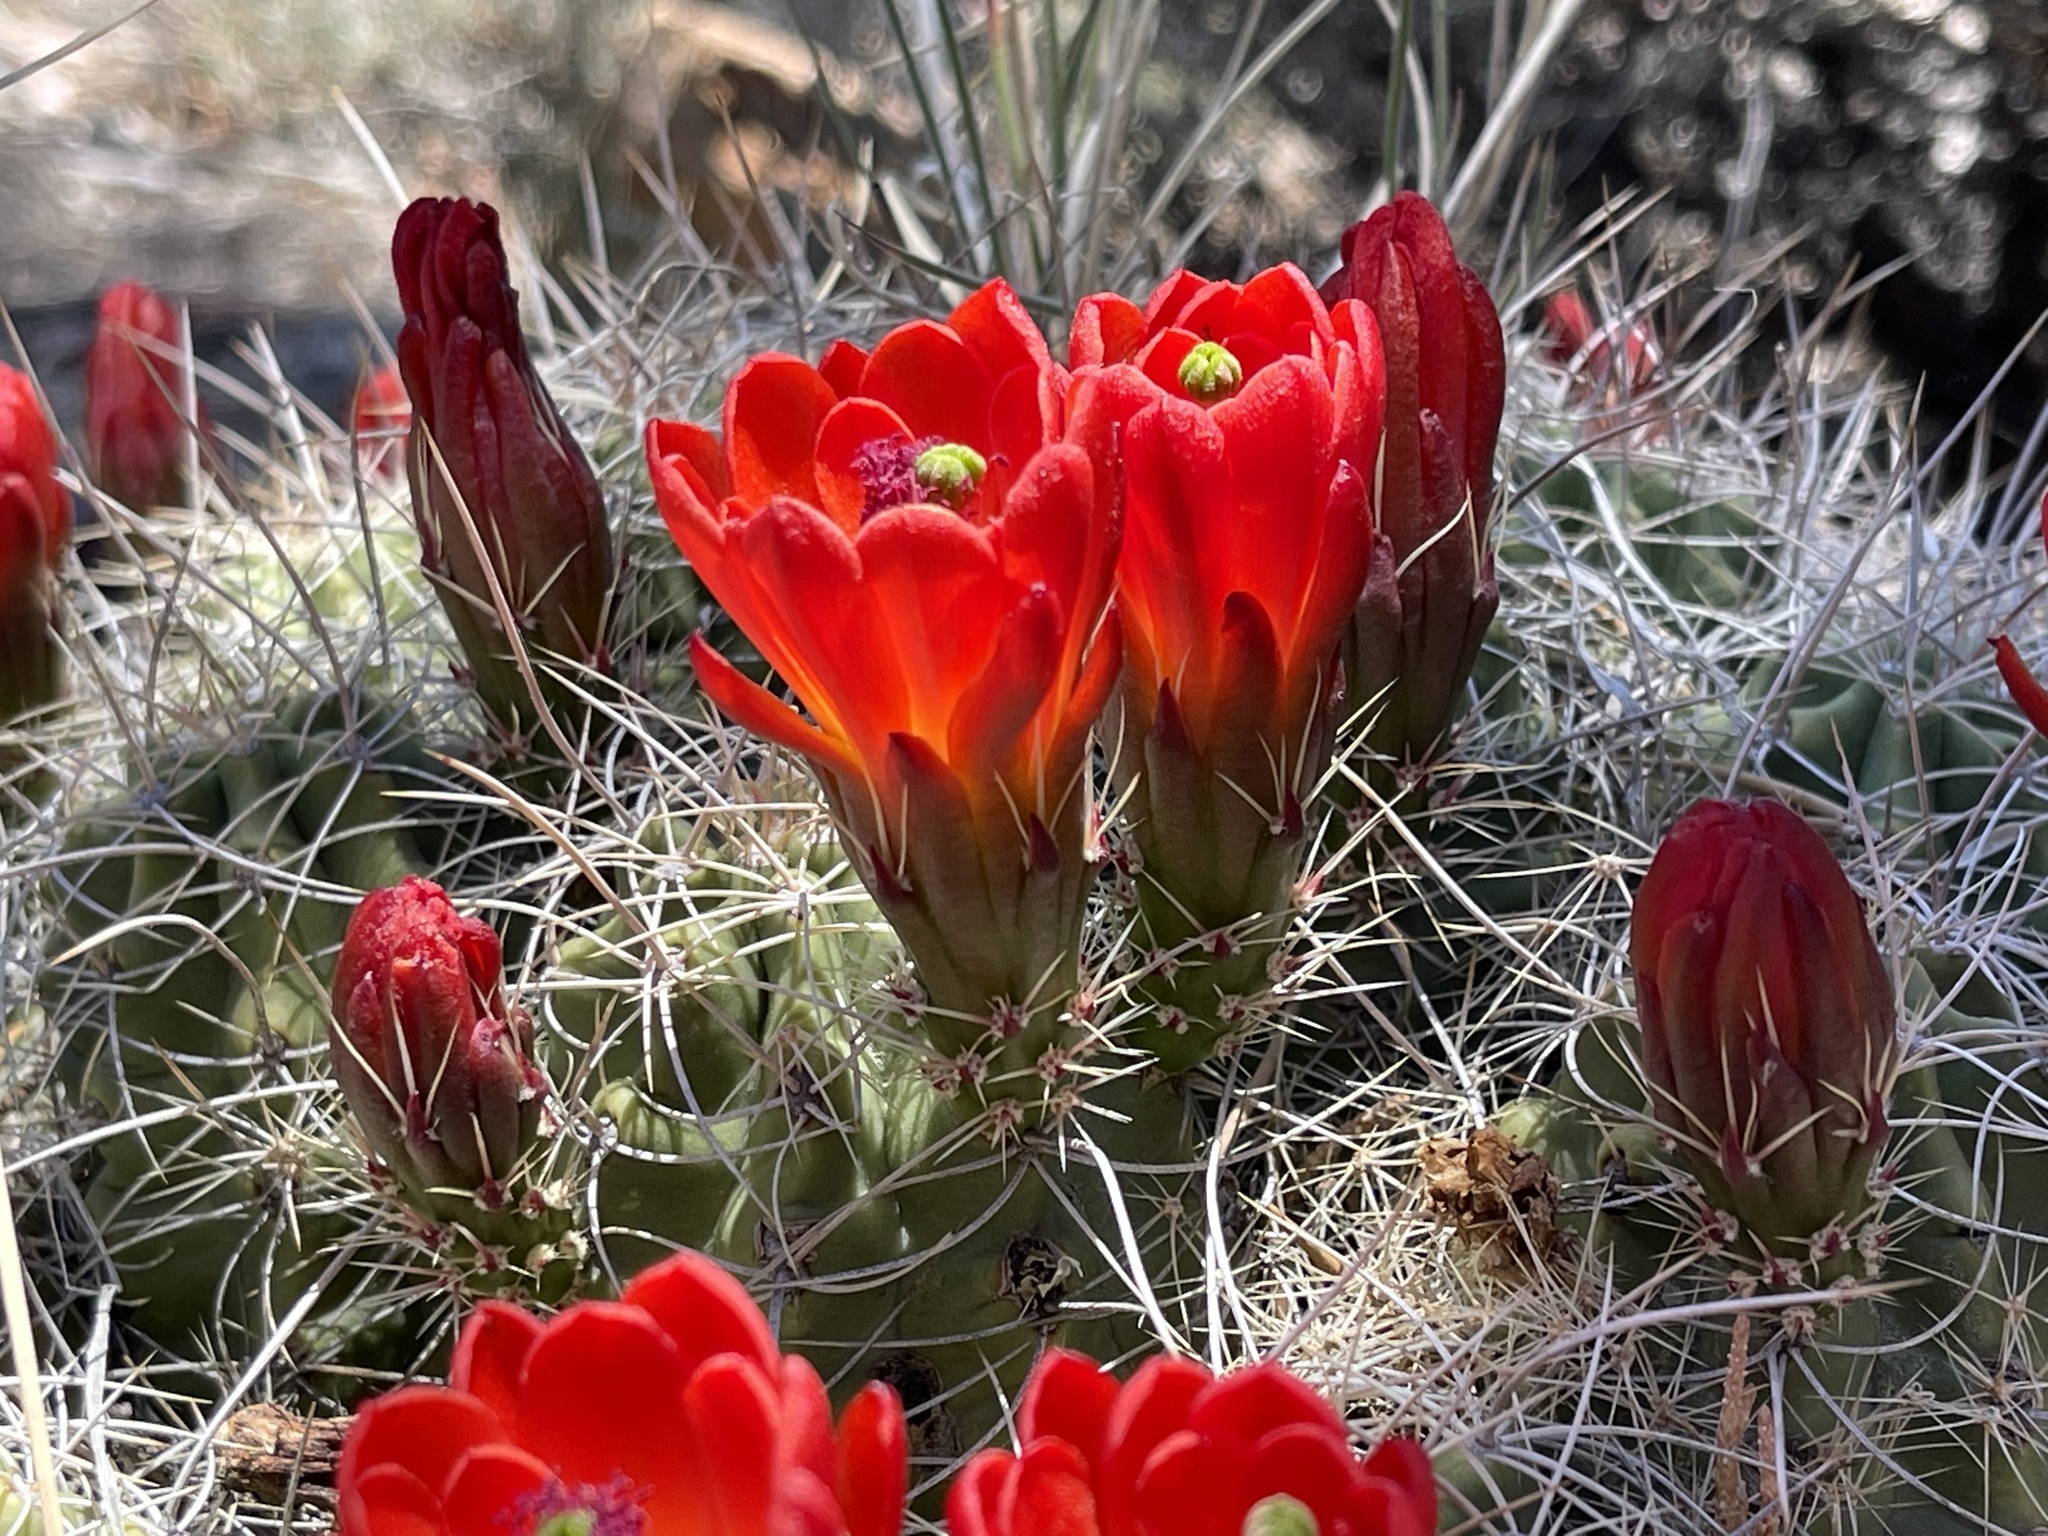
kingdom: Plantae
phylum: Tracheophyta
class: Magnoliopsida
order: Caryophyllales
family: Cactaceae
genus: Echinocereus
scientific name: Echinocereus triglochidiatus
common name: Claretcup hedgehog
